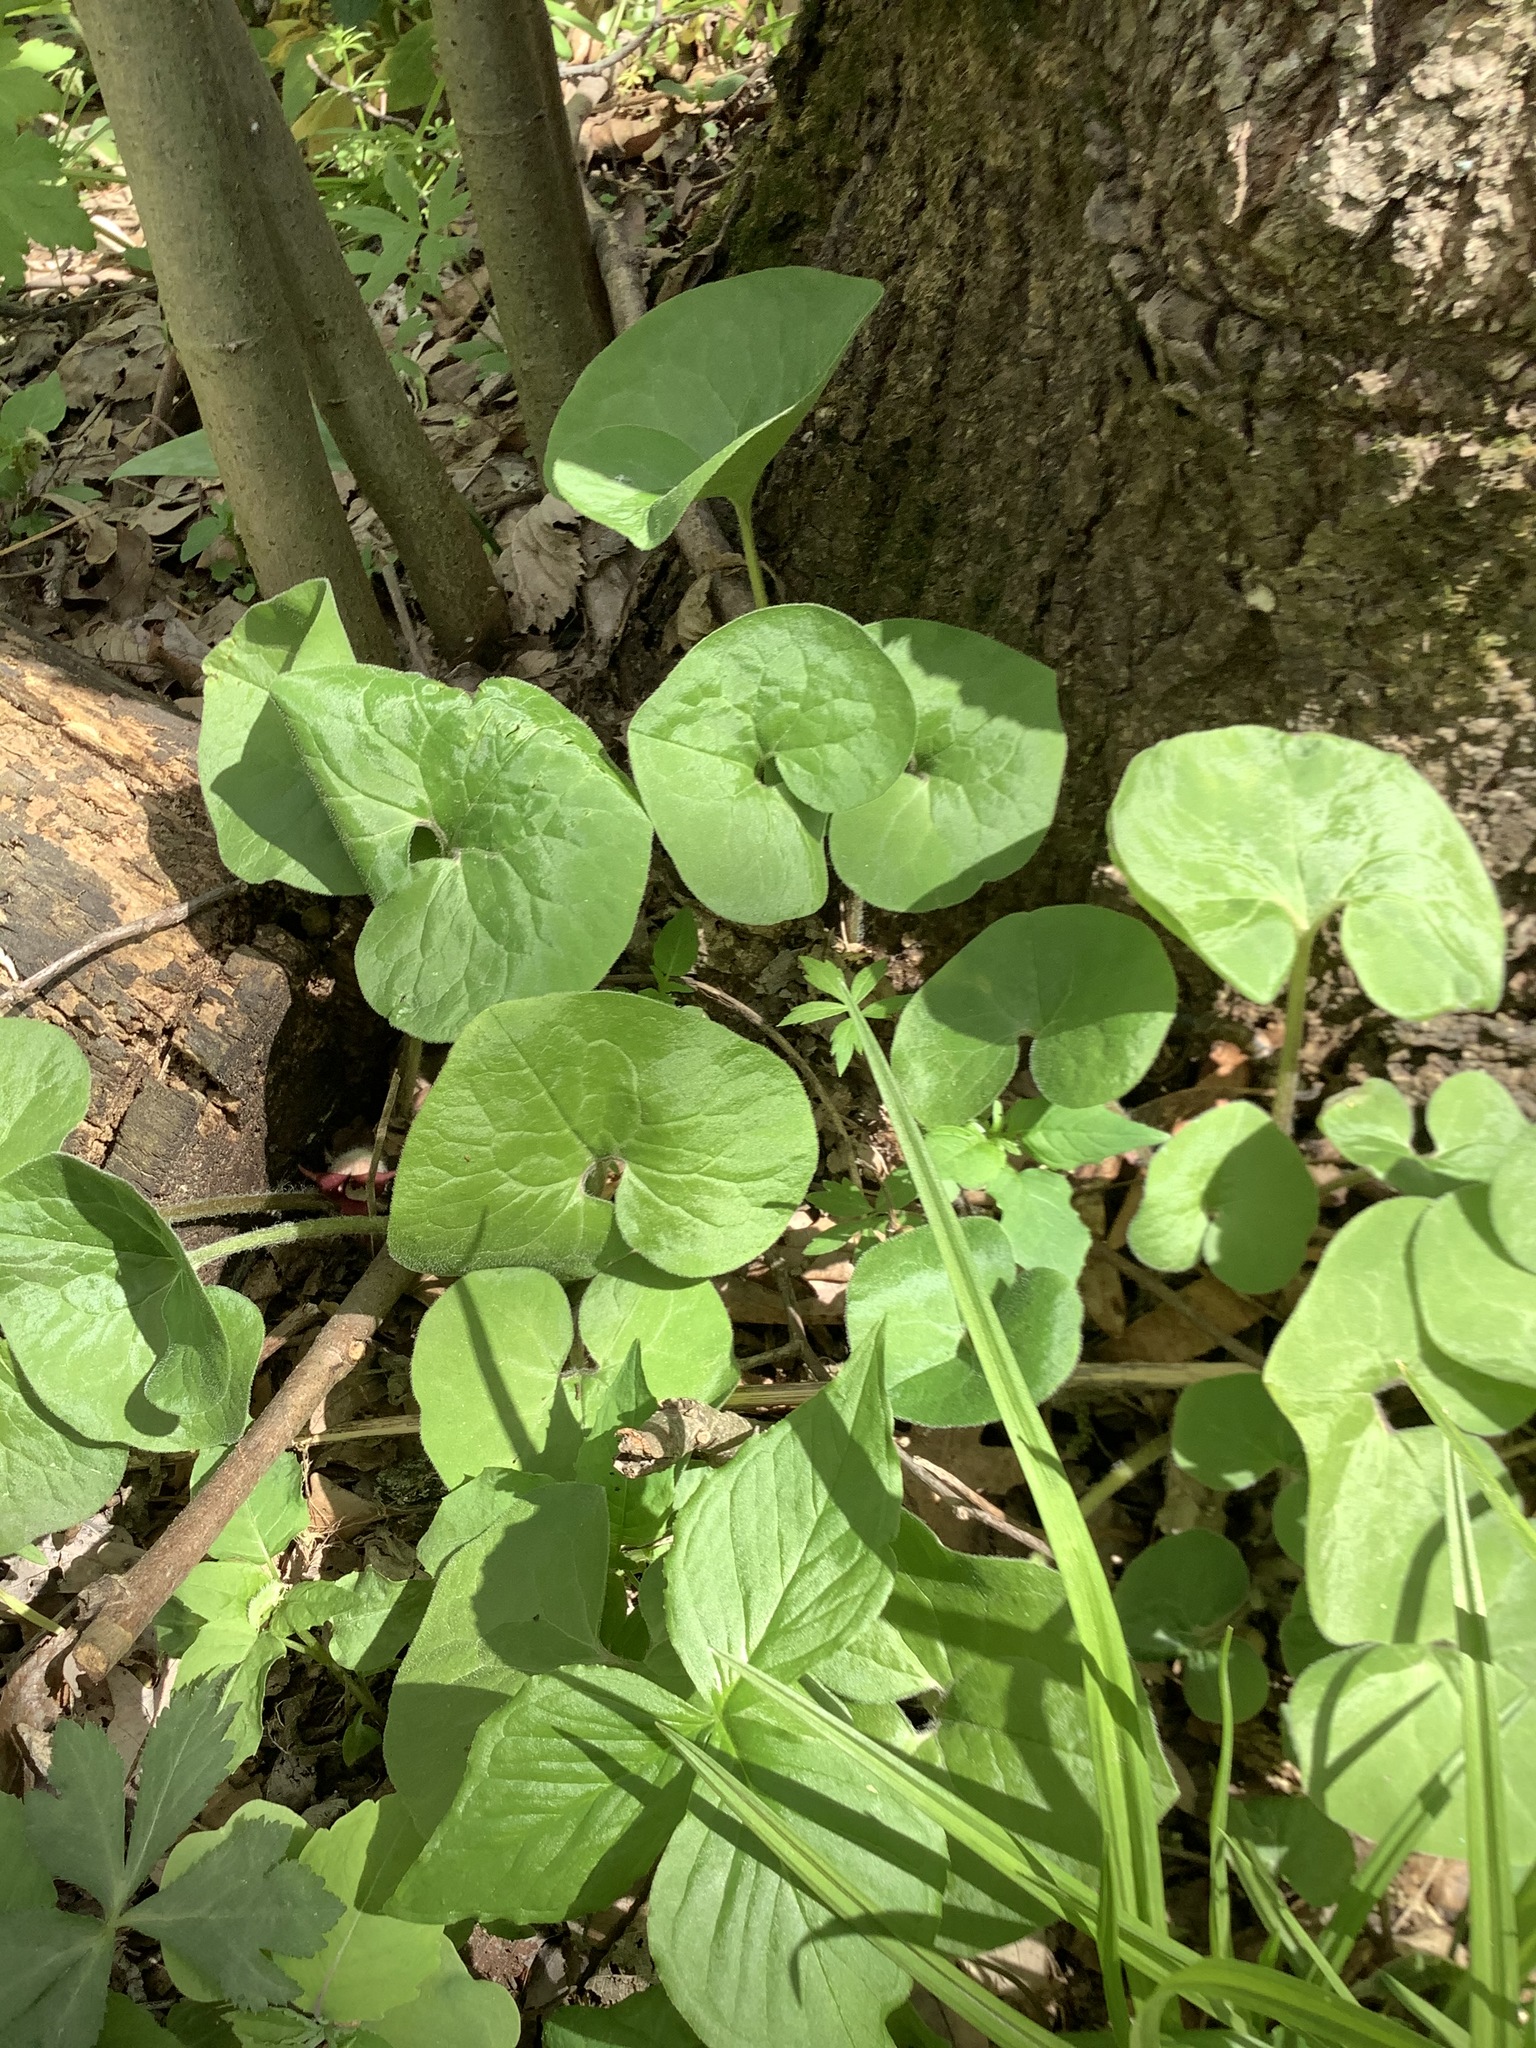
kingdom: Plantae
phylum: Tracheophyta
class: Magnoliopsida
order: Piperales
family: Aristolochiaceae
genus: Asarum
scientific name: Asarum canadense
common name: Wild ginger
